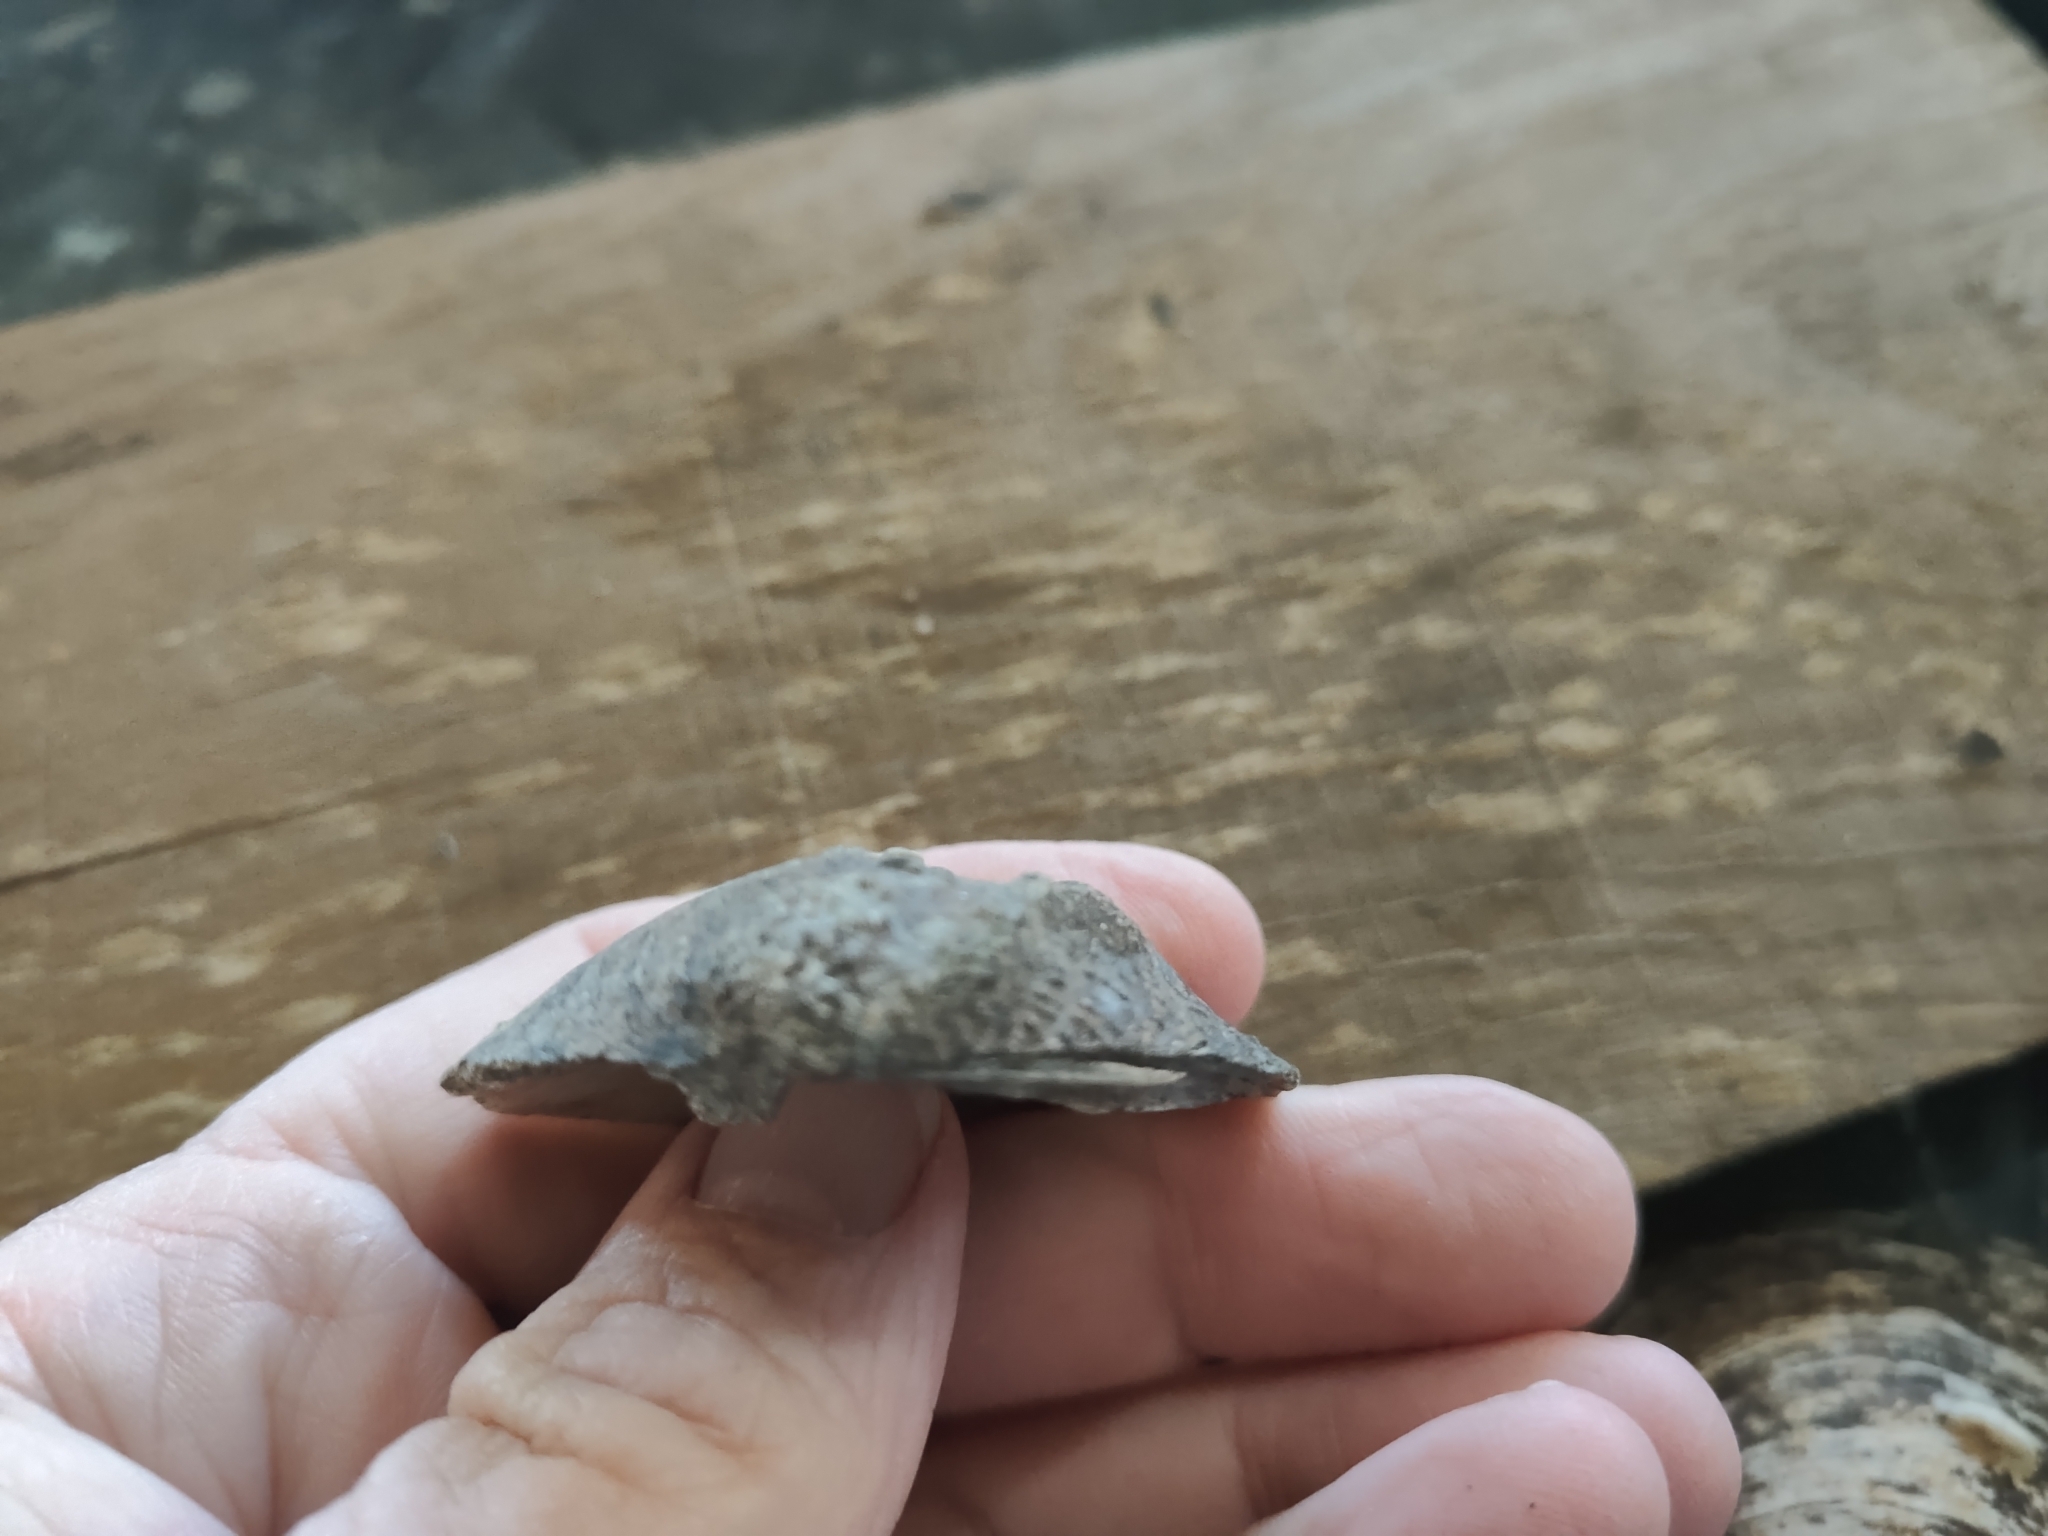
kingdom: Animalia
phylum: Mollusca
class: Bivalvia
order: Unionida
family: Unionidae
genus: Quadrula
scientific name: Quadrula quadrula
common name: Mapleleaf
